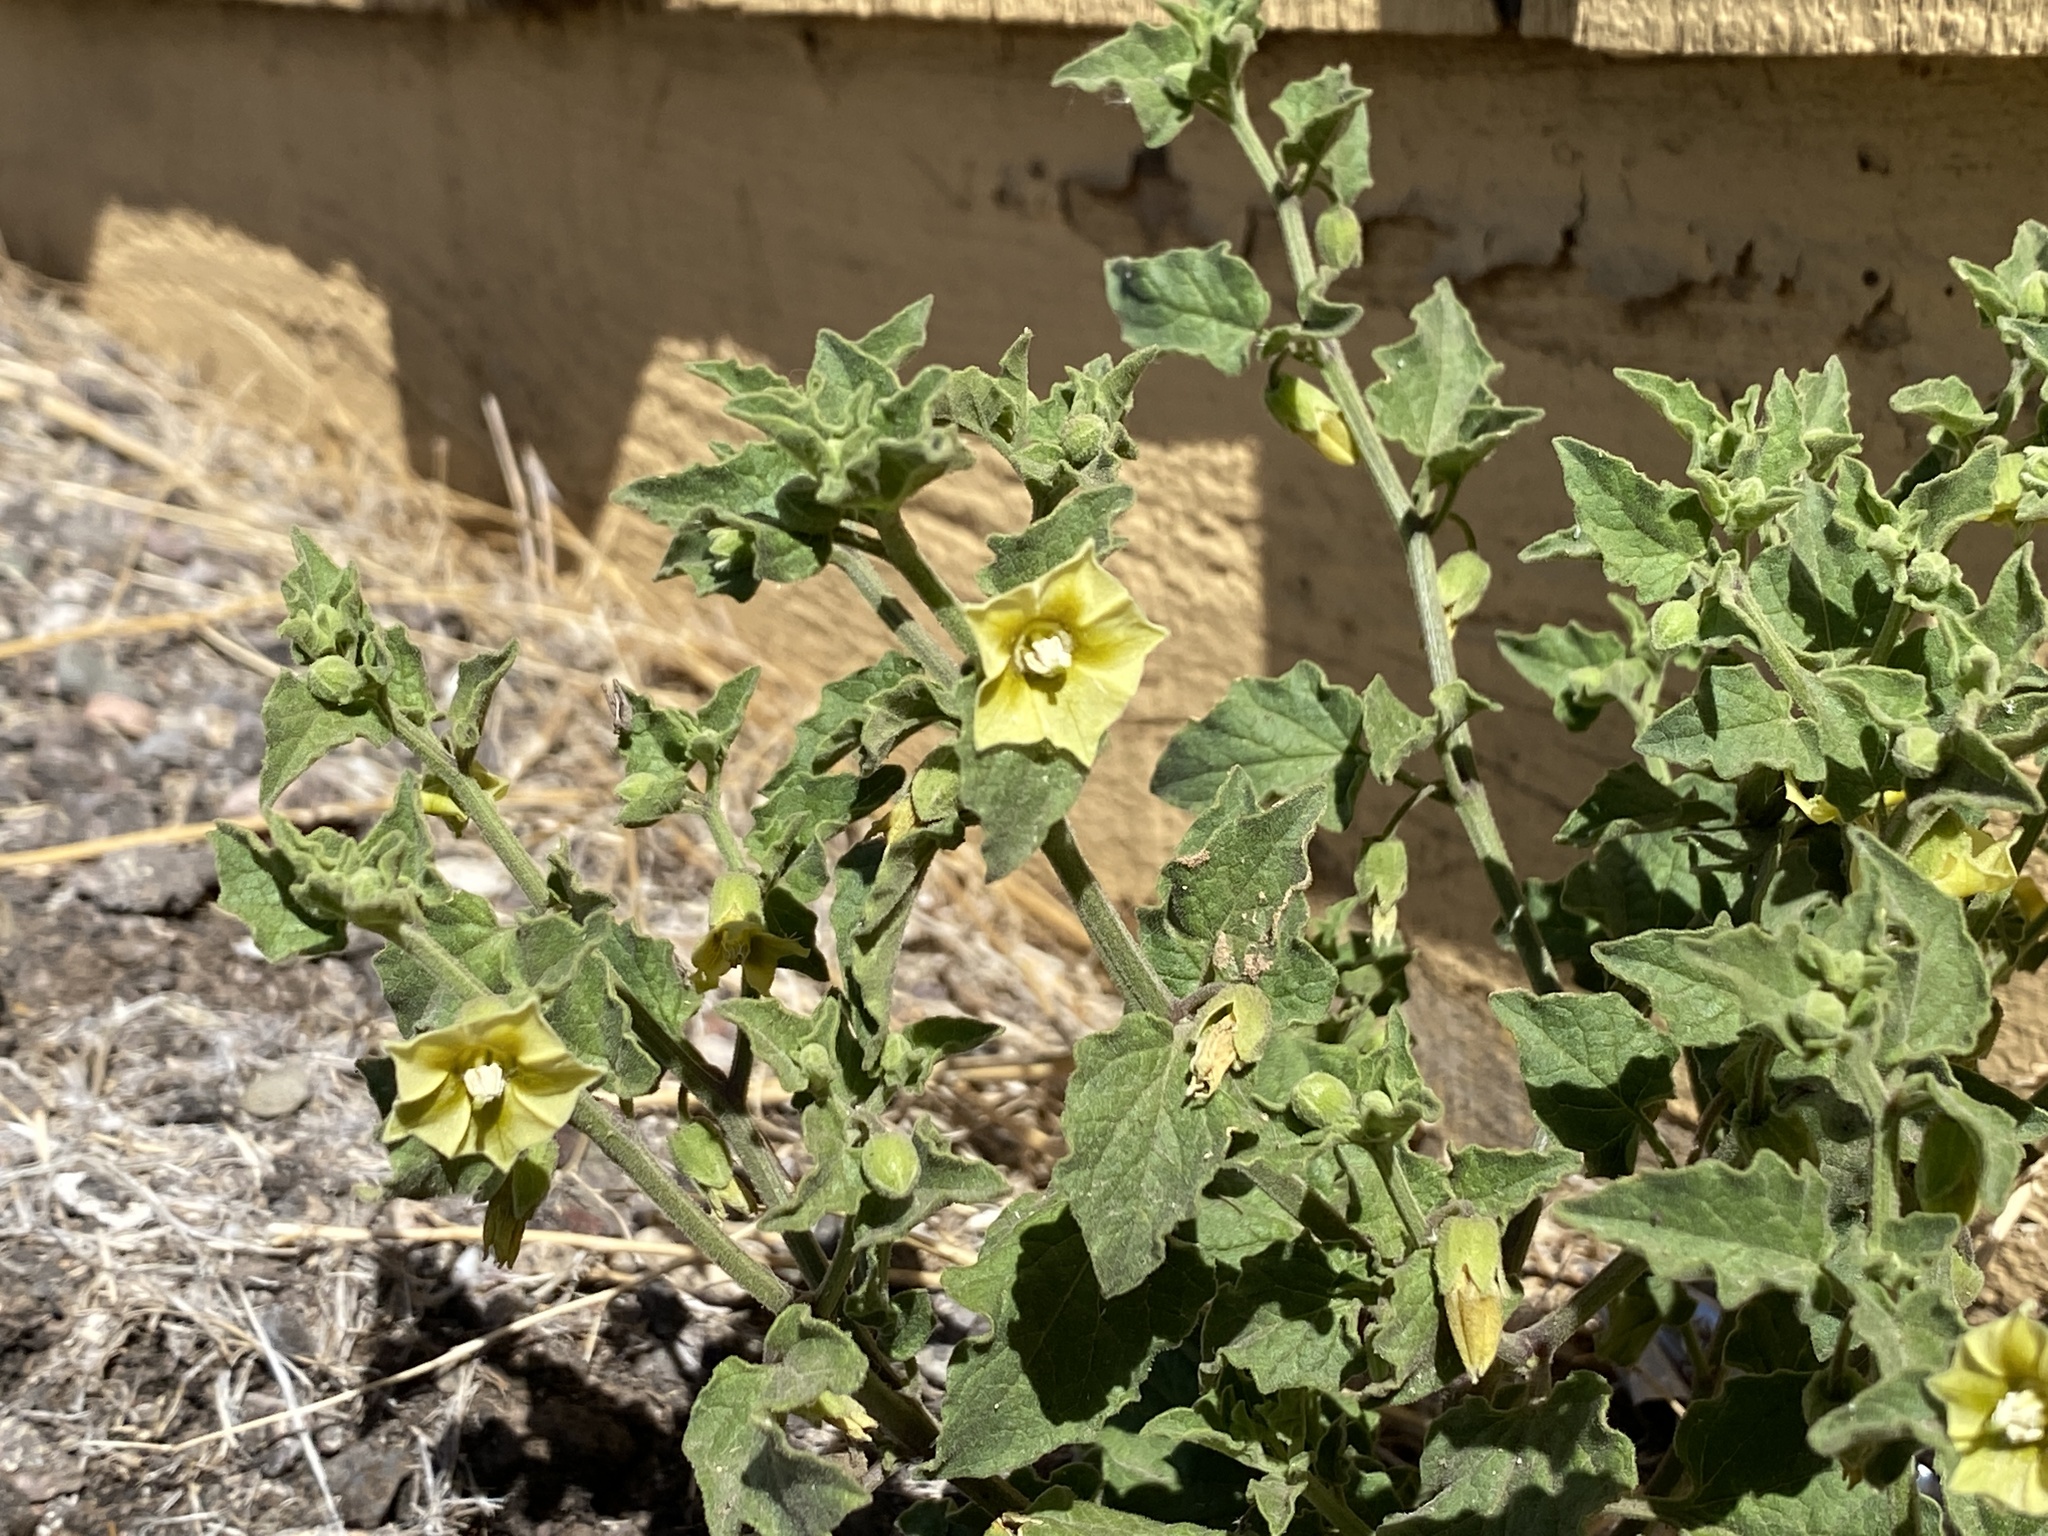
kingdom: Plantae
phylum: Tracheophyta
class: Magnoliopsida
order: Solanales
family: Solanaceae
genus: Physalis
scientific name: Physalis hederifolia
